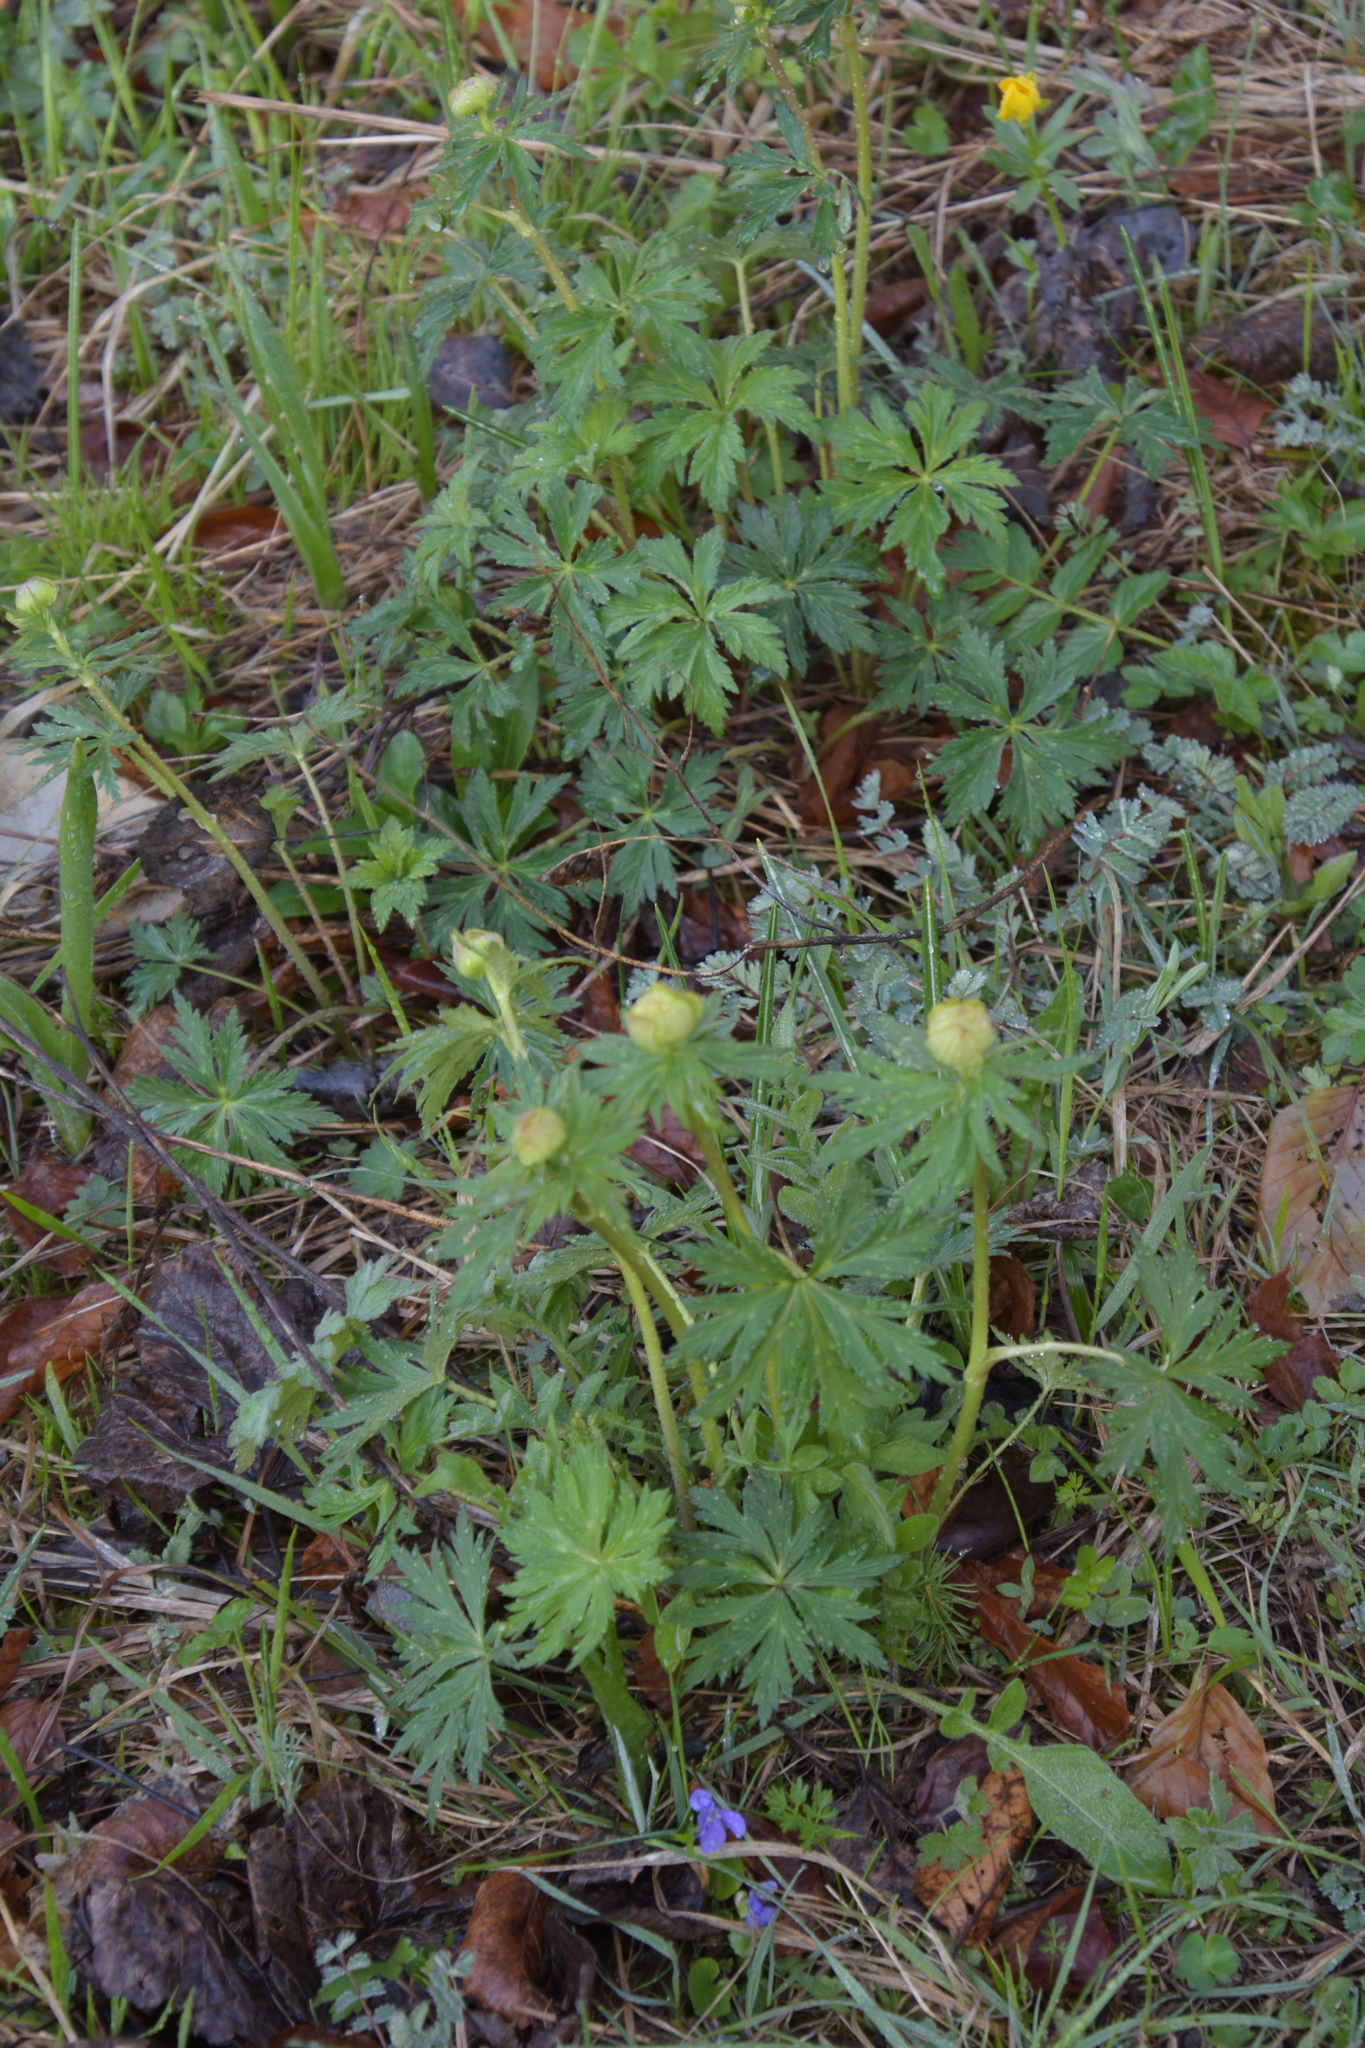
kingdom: Plantae
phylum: Tracheophyta
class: Magnoliopsida
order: Ranunculales
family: Ranunculaceae
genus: Trollius
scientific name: Trollius europaeus
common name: European globeflower
